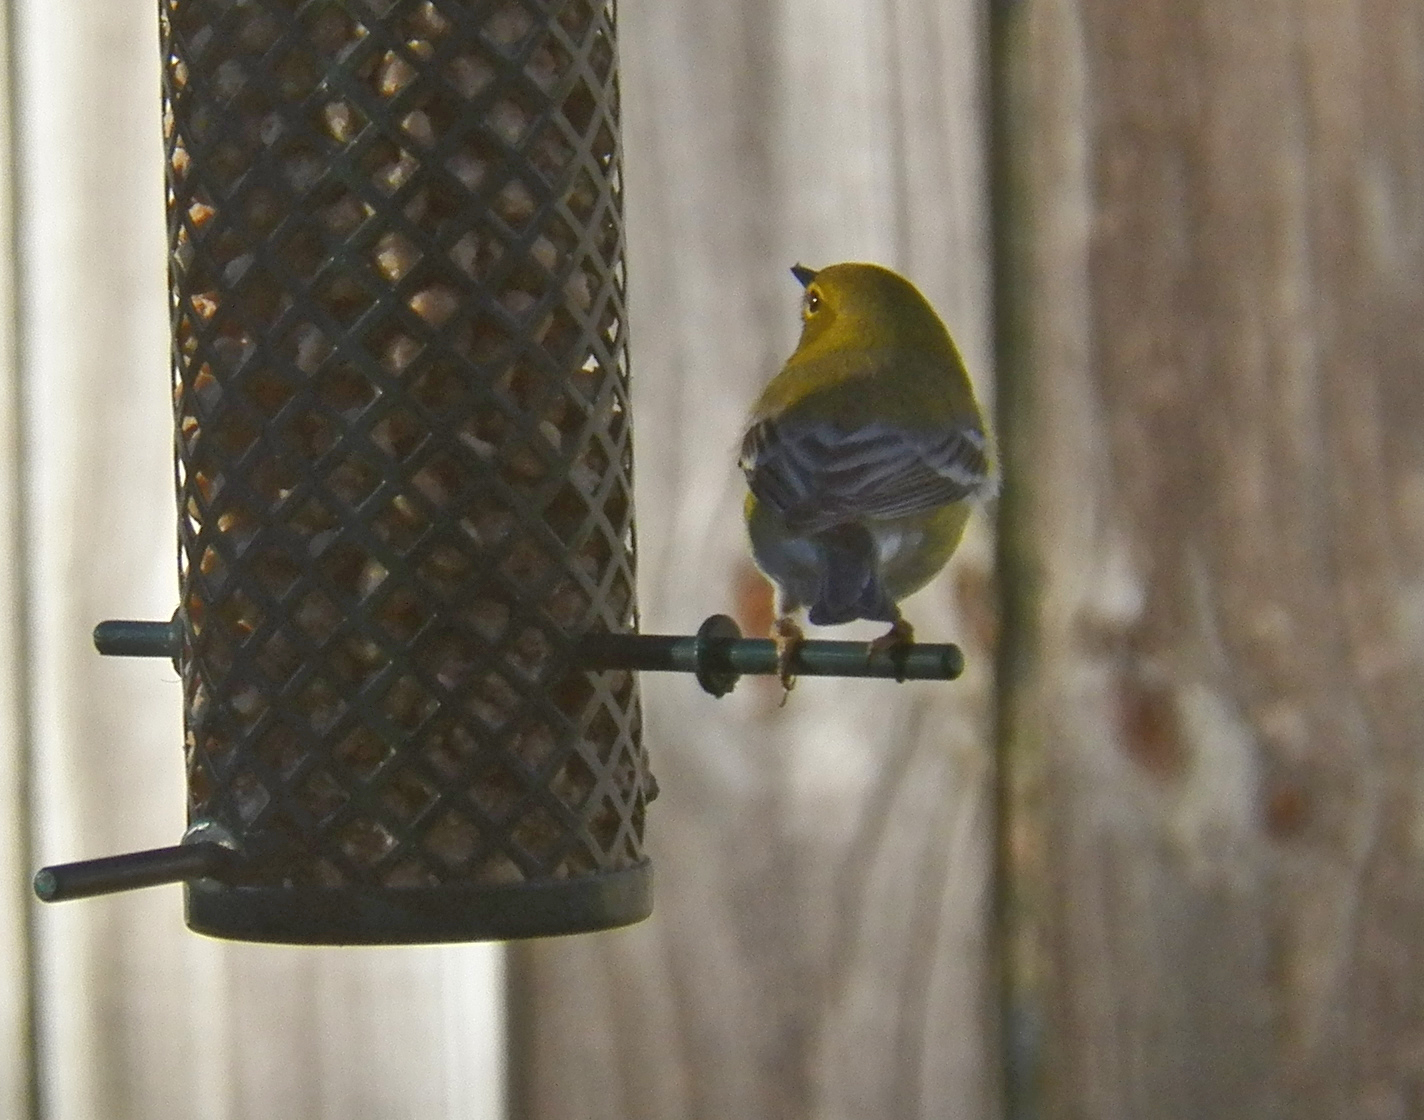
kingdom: Animalia
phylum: Chordata
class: Aves
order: Passeriformes
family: Parulidae
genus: Setophaga
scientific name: Setophaga pinus
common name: Pine warbler
